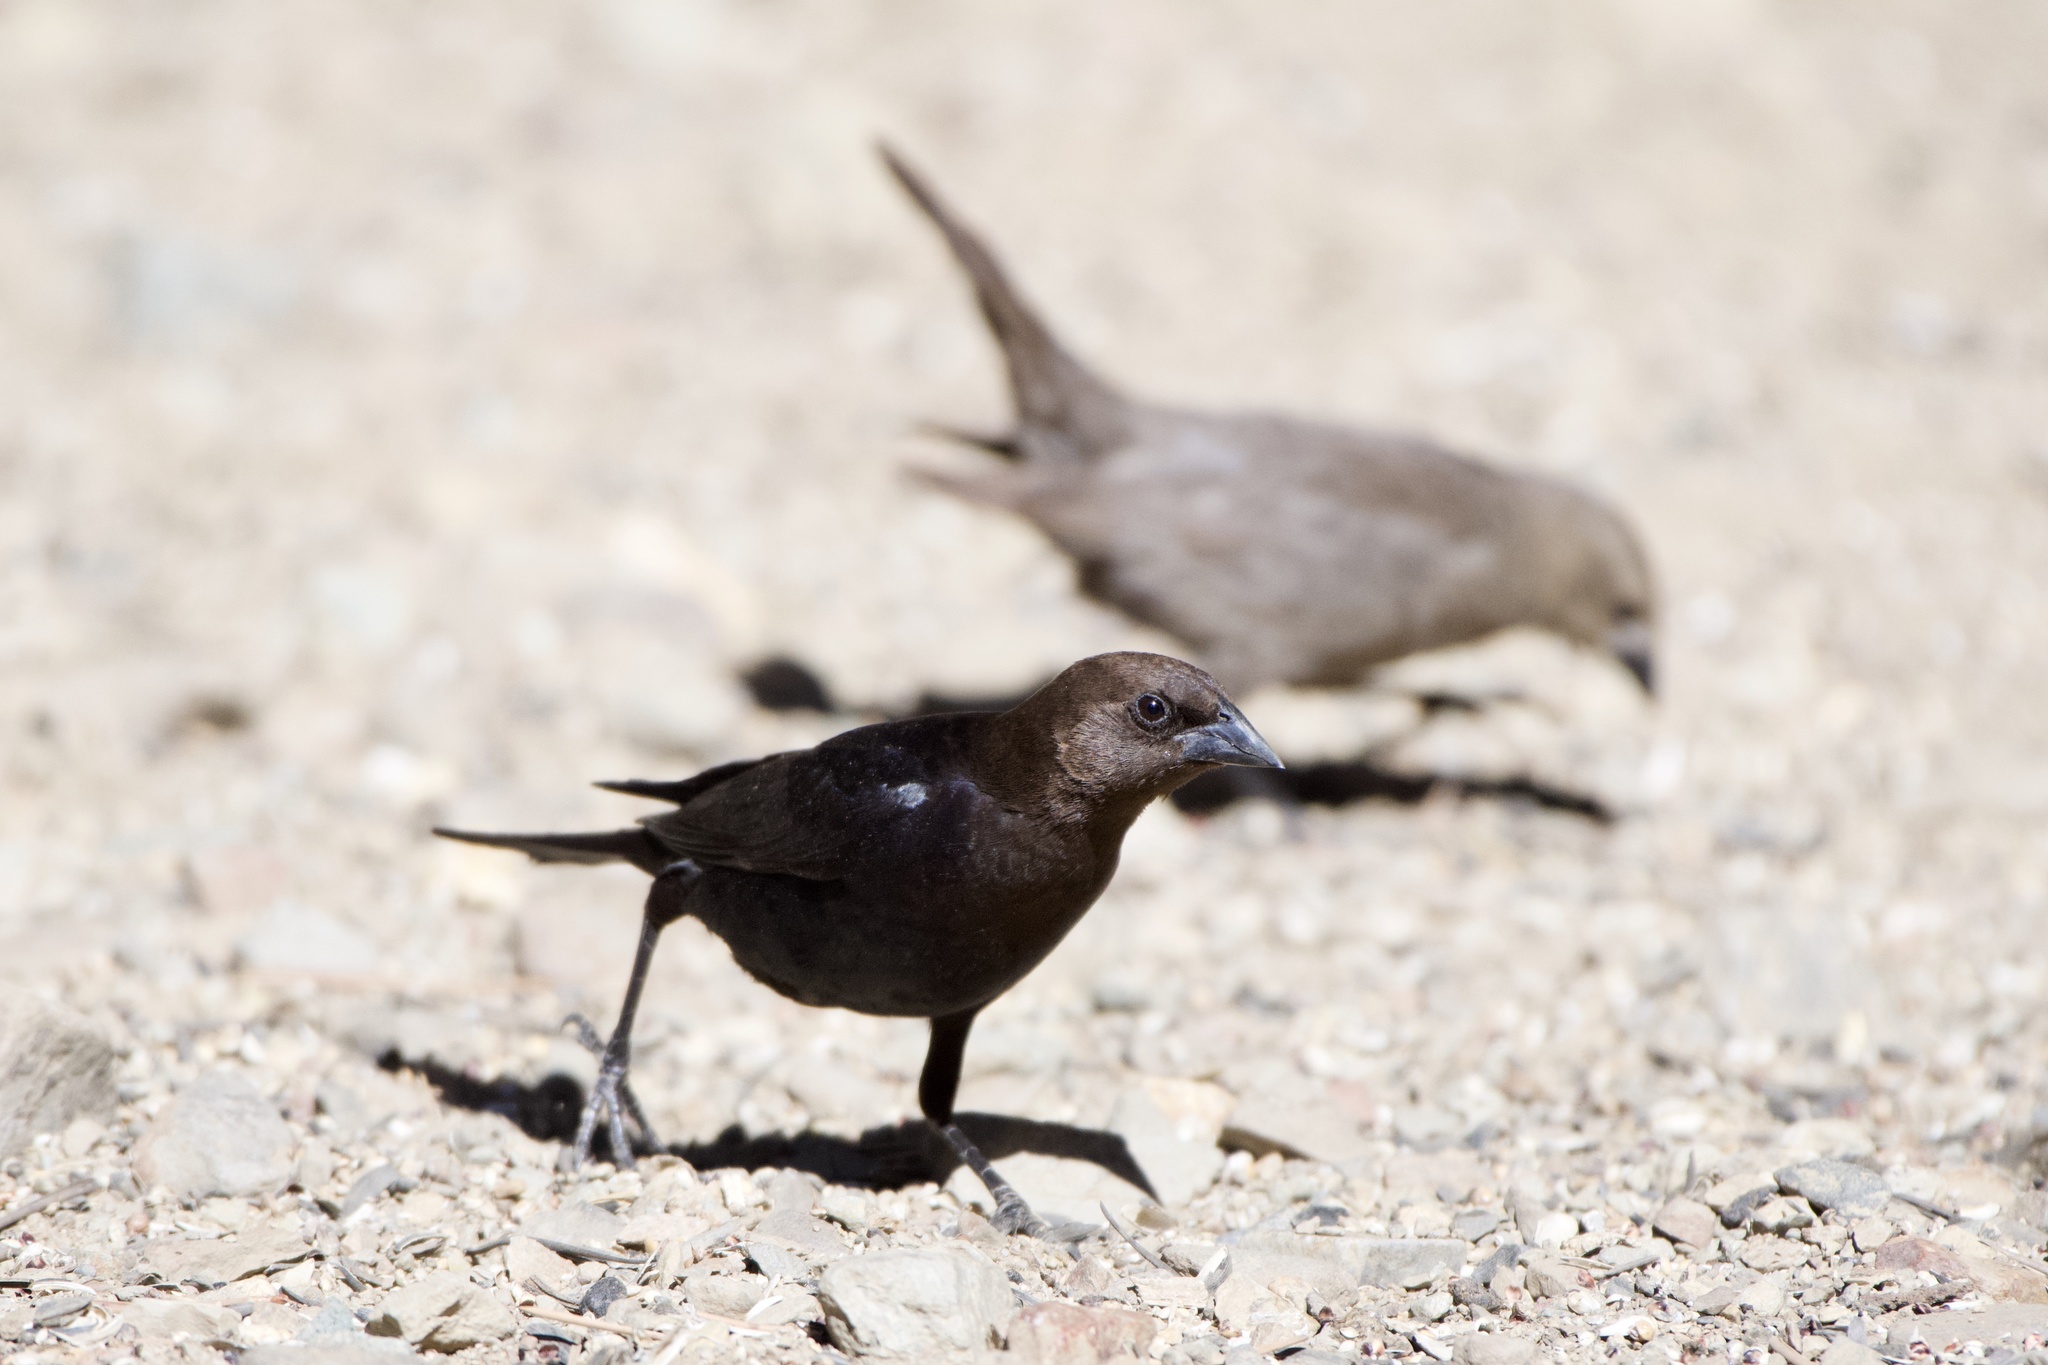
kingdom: Animalia
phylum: Chordata
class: Aves
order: Passeriformes
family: Icteridae
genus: Molothrus
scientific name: Molothrus ater
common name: Brown-headed cowbird
